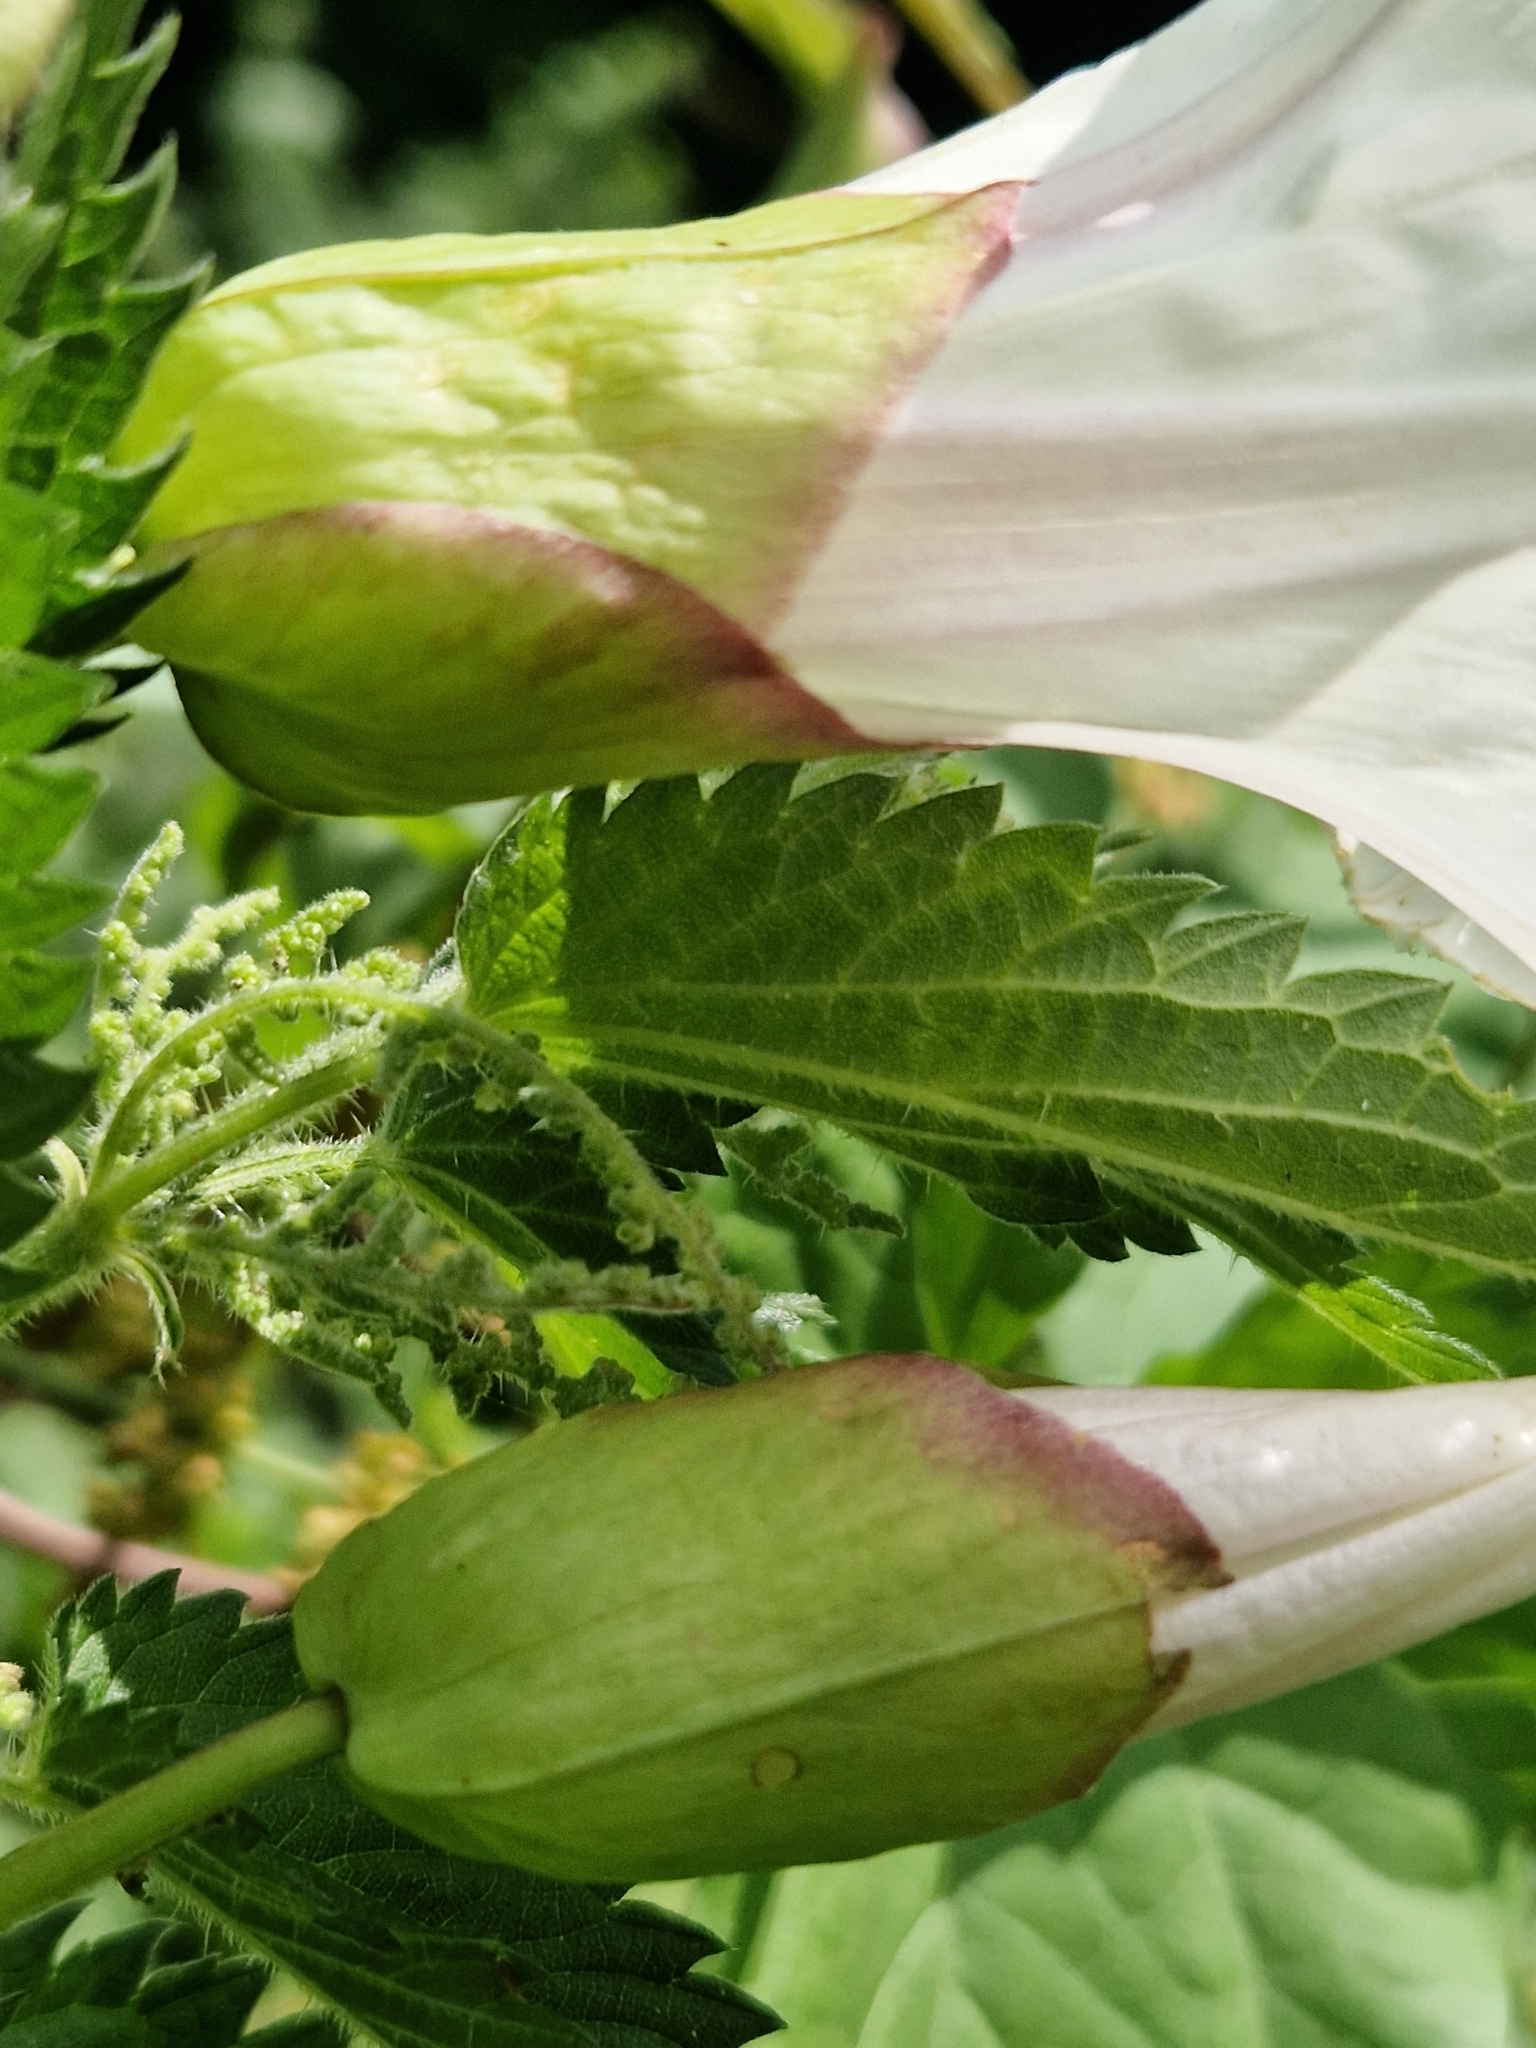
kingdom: Plantae
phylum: Tracheophyta
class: Magnoliopsida
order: Solanales
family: Convolvulaceae
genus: Calystegia
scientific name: Calystegia silvatica
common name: Large bindweed
